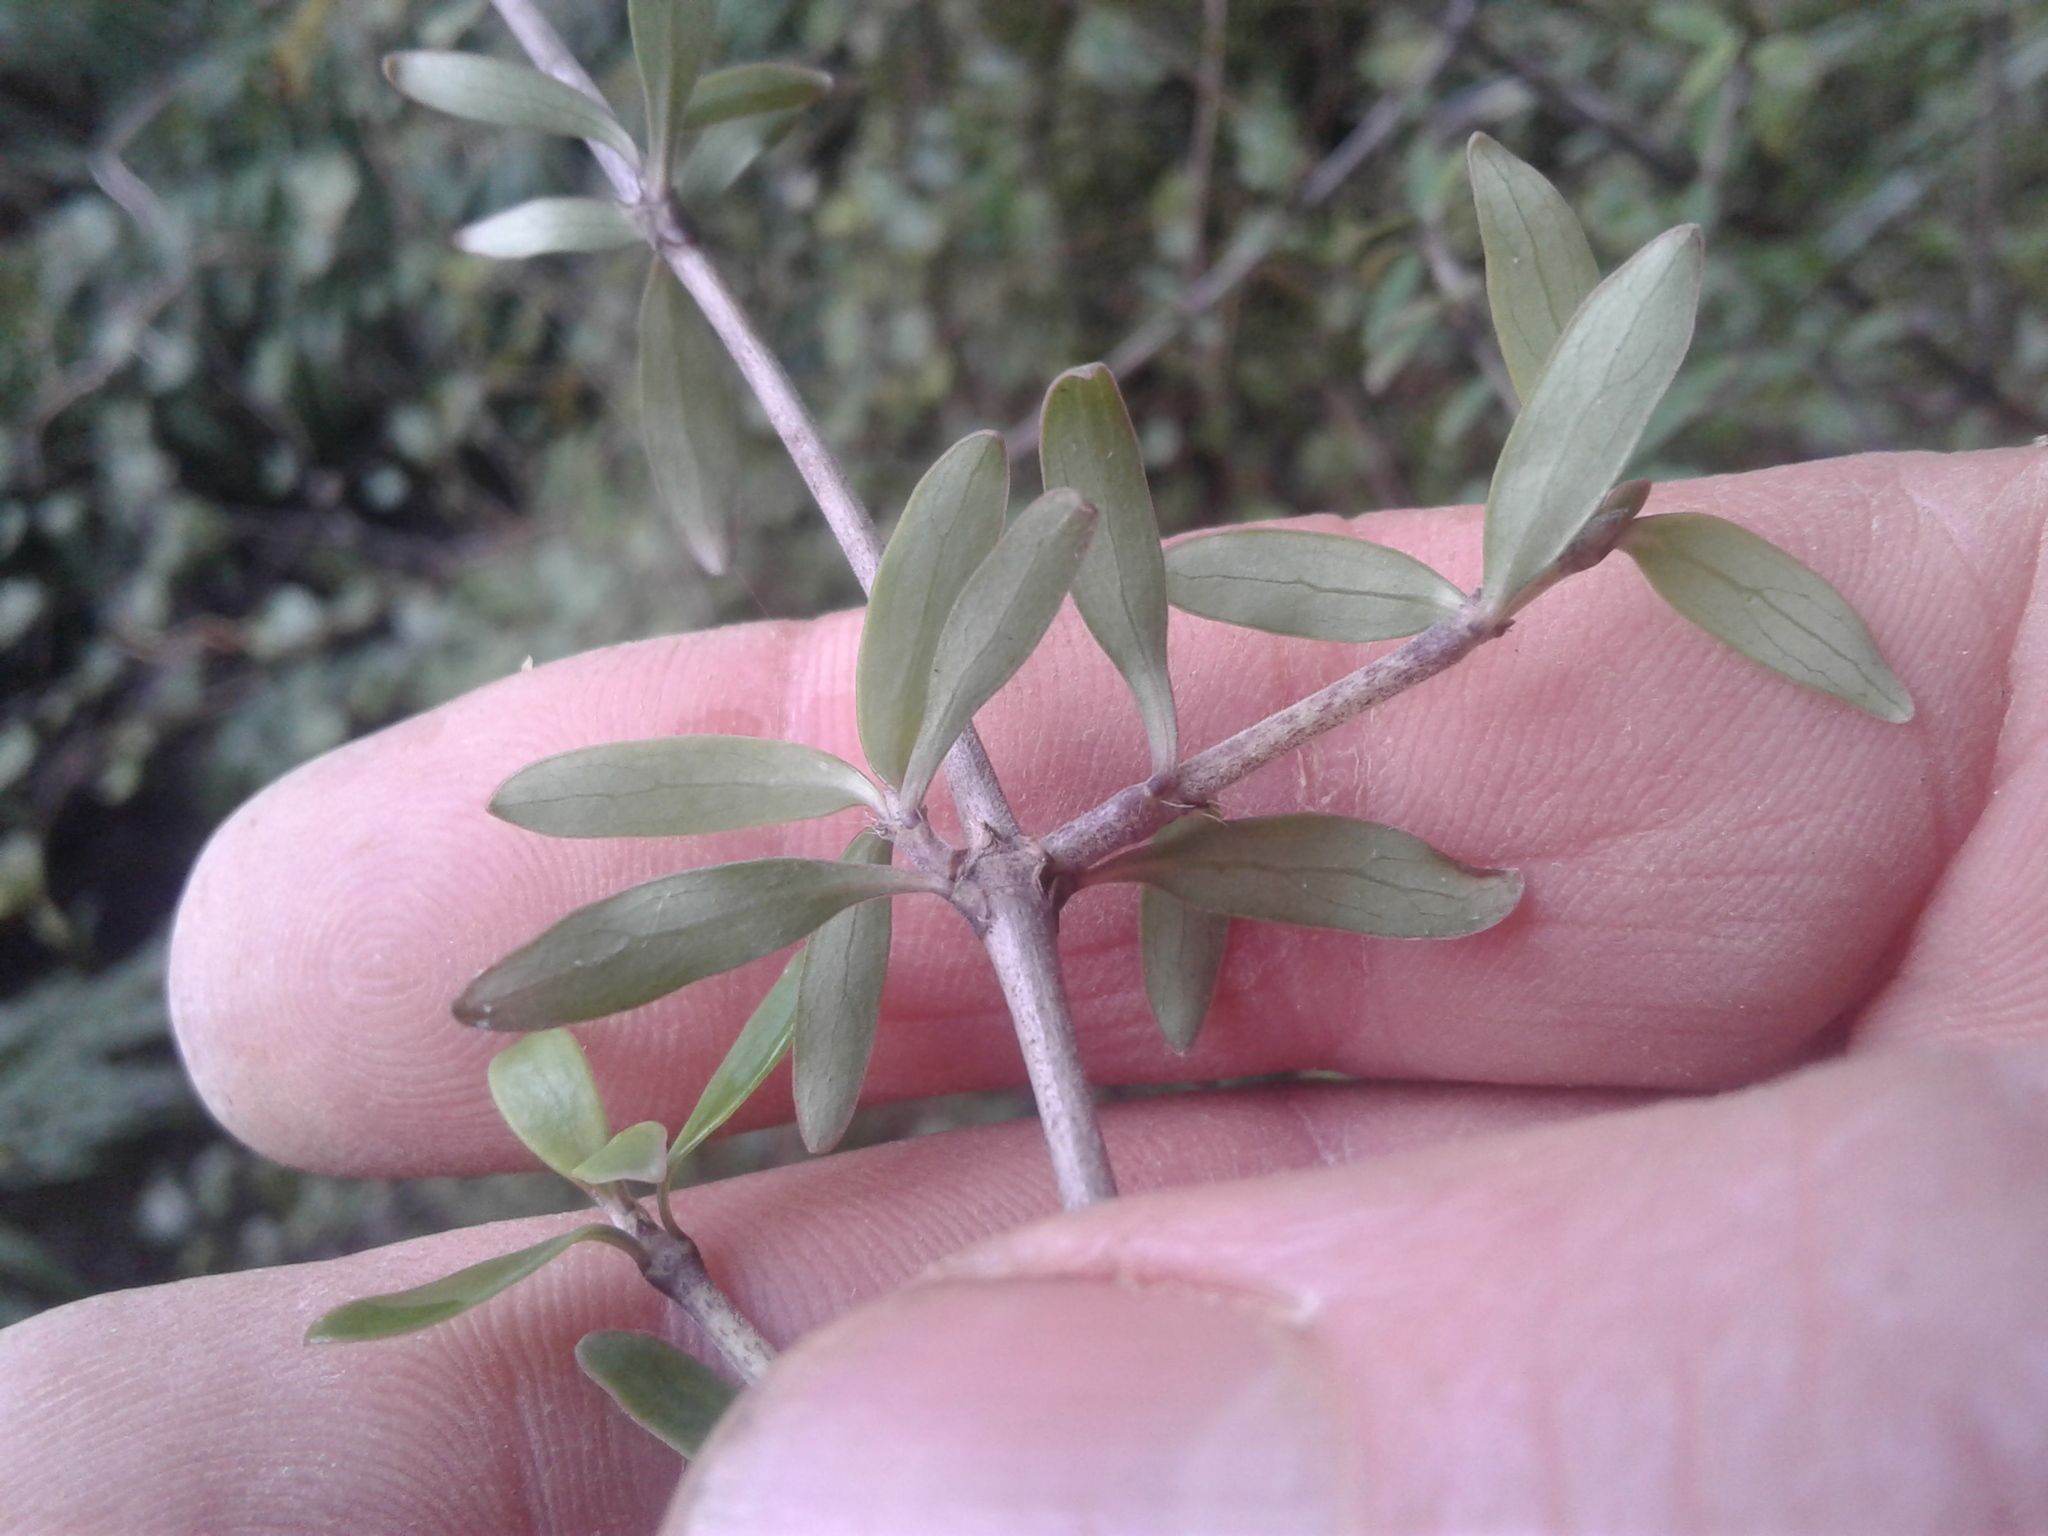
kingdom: Plantae
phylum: Tracheophyta
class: Magnoliopsida
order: Gentianales
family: Rubiaceae
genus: Coprosma
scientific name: Coprosma propinqua
